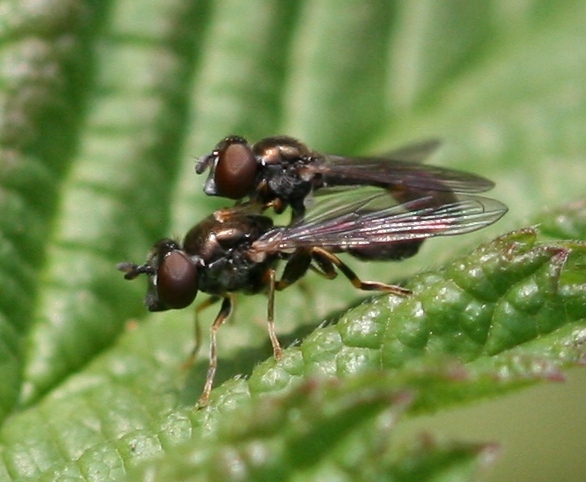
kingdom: Animalia
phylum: Arthropoda
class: Insecta
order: Diptera
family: Syrphidae
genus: Neoascia
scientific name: Neoascia meticulosa
